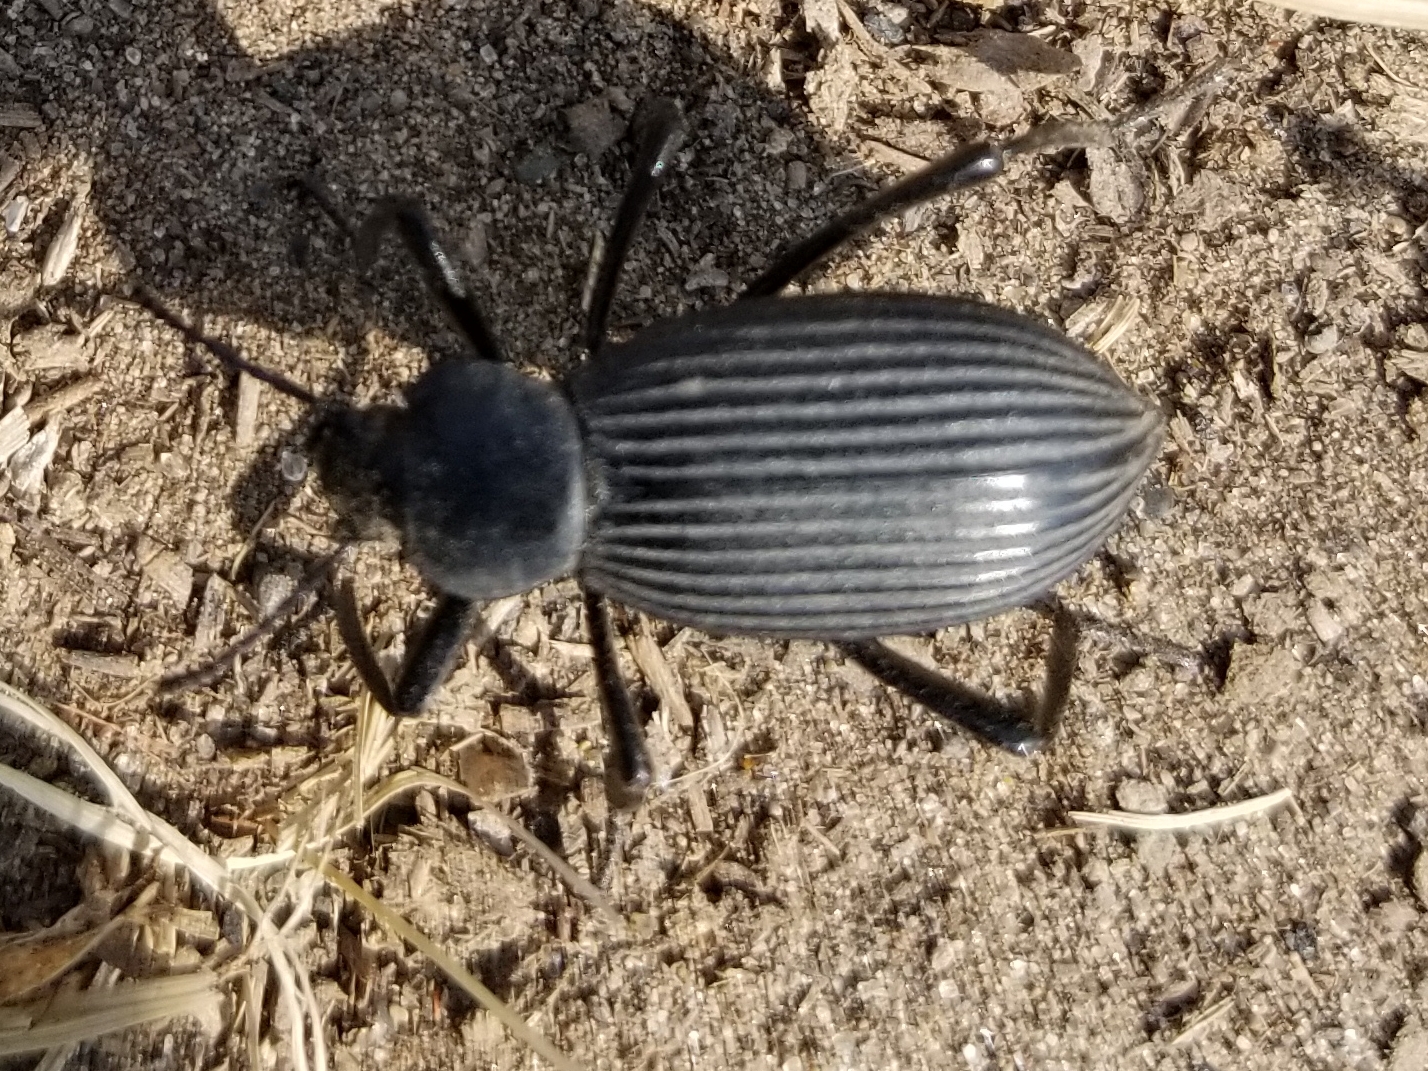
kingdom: Animalia
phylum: Arthropoda
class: Insecta
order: Coleoptera
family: Tenebrionidae
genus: Eleodes
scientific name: Eleodes hispilabris
